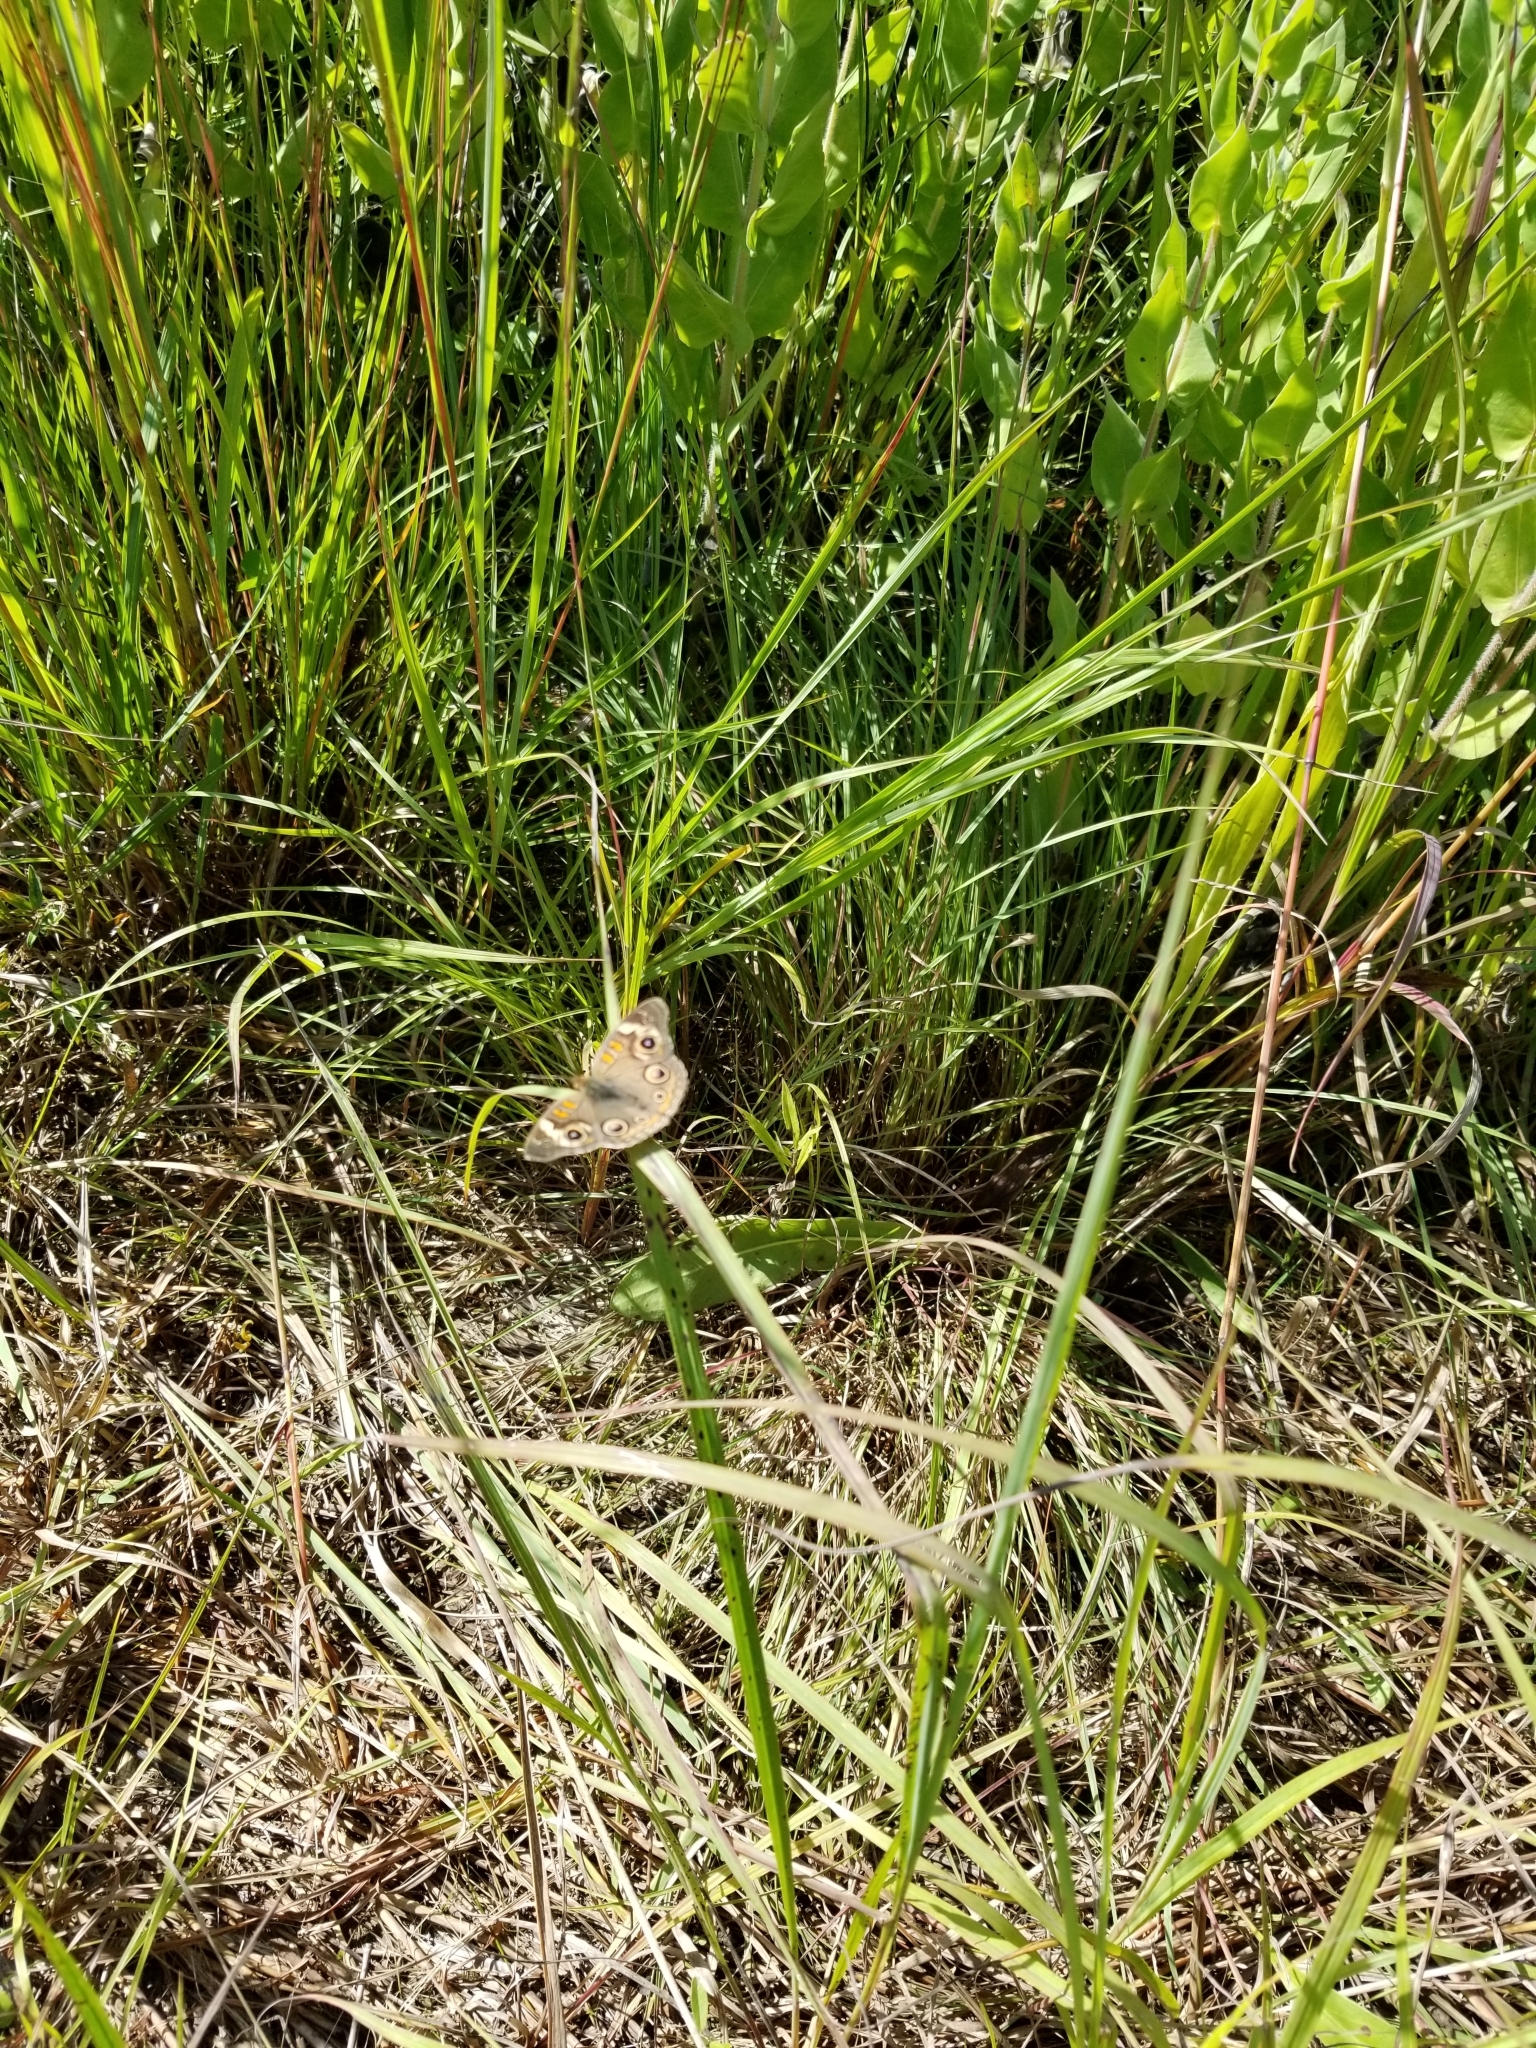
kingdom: Animalia
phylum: Arthropoda
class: Insecta
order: Lepidoptera
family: Nymphalidae
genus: Junonia
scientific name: Junonia coenia
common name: Common buckeye
